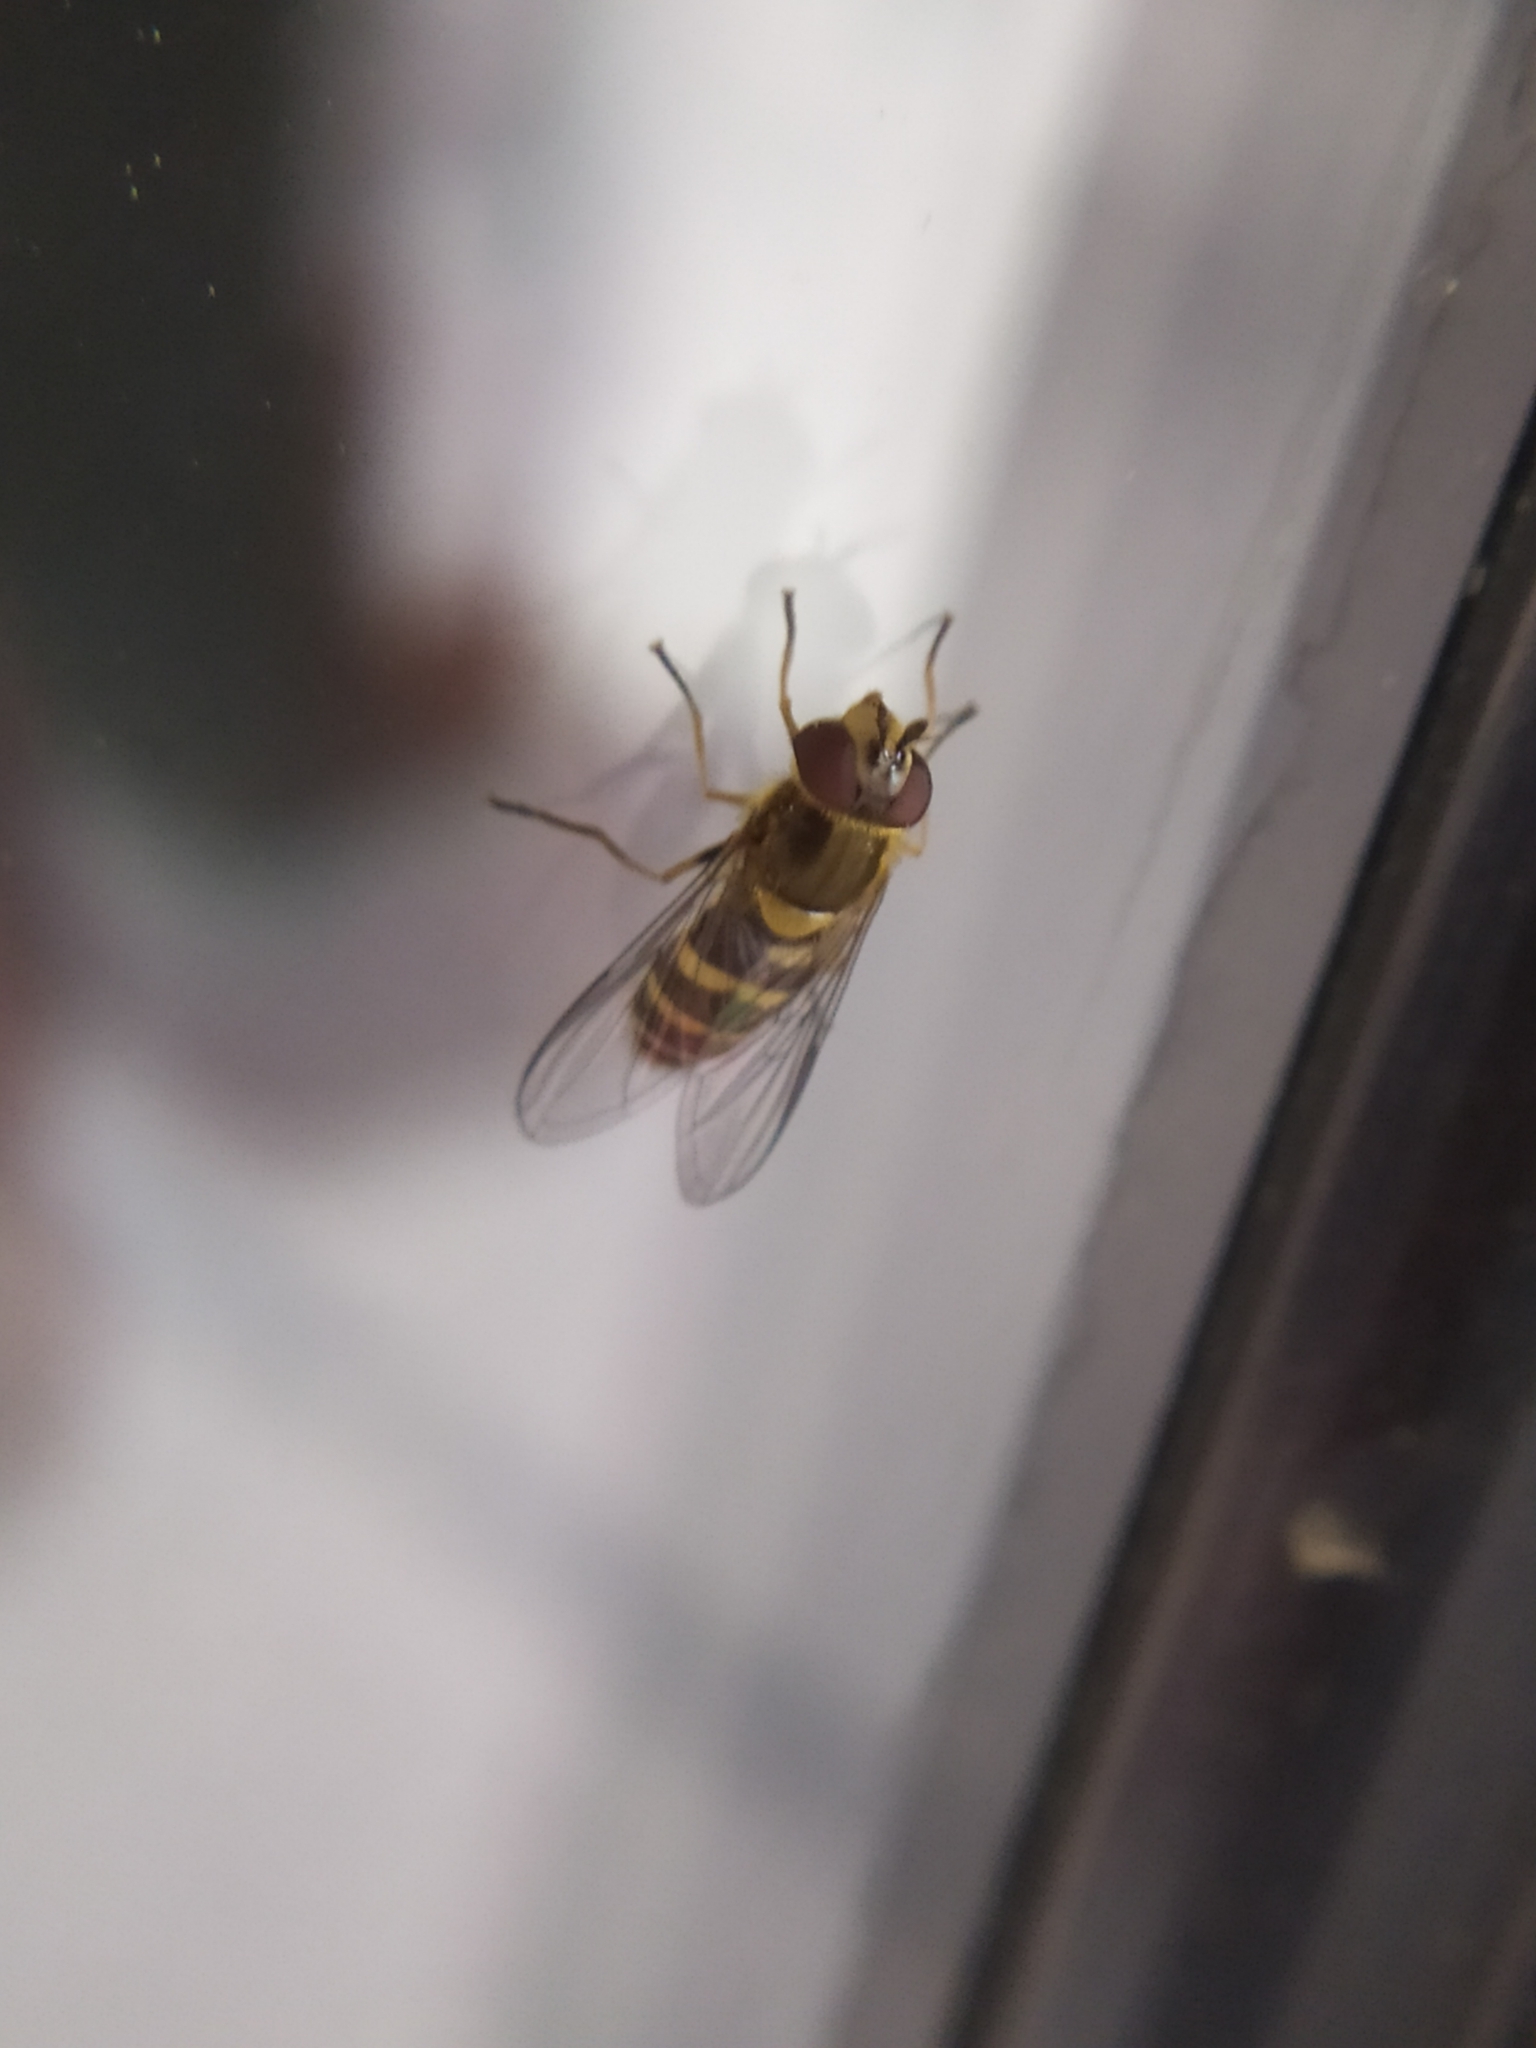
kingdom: Animalia
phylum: Arthropoda
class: Insecta
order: Diptera
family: Syrphidae
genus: Syrphus
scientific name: Syrphus torvus
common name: Hairy-eyed flower fly
